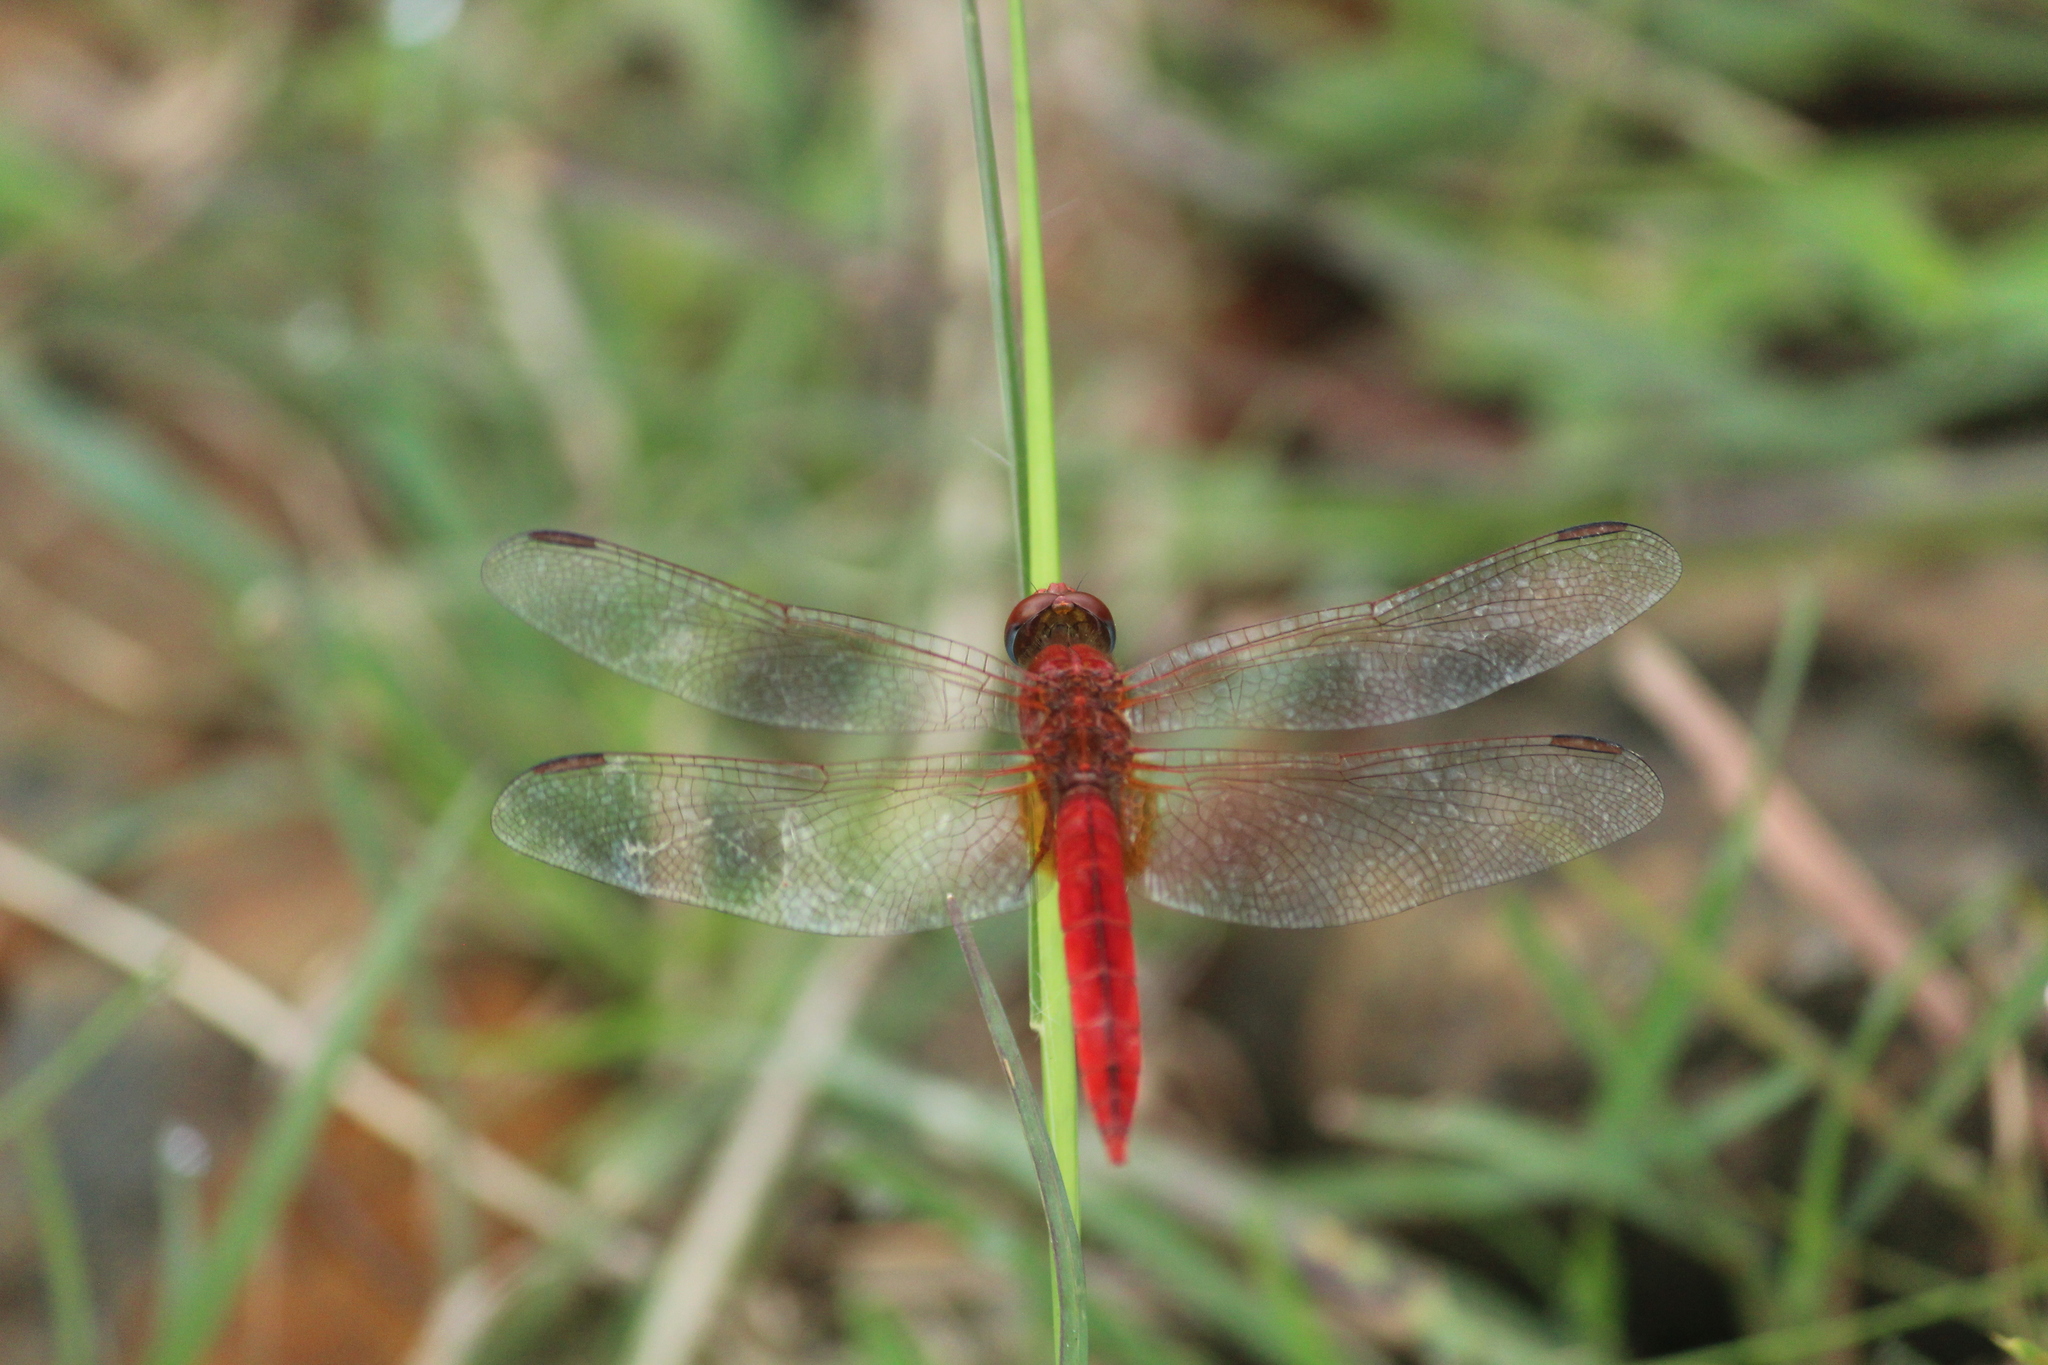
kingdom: Animalia
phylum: Arthropoda
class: Insecta
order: Odonata
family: Libellulidae
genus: Crocothemis
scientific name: Crocothemis servilia
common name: Scarlet skimmer
